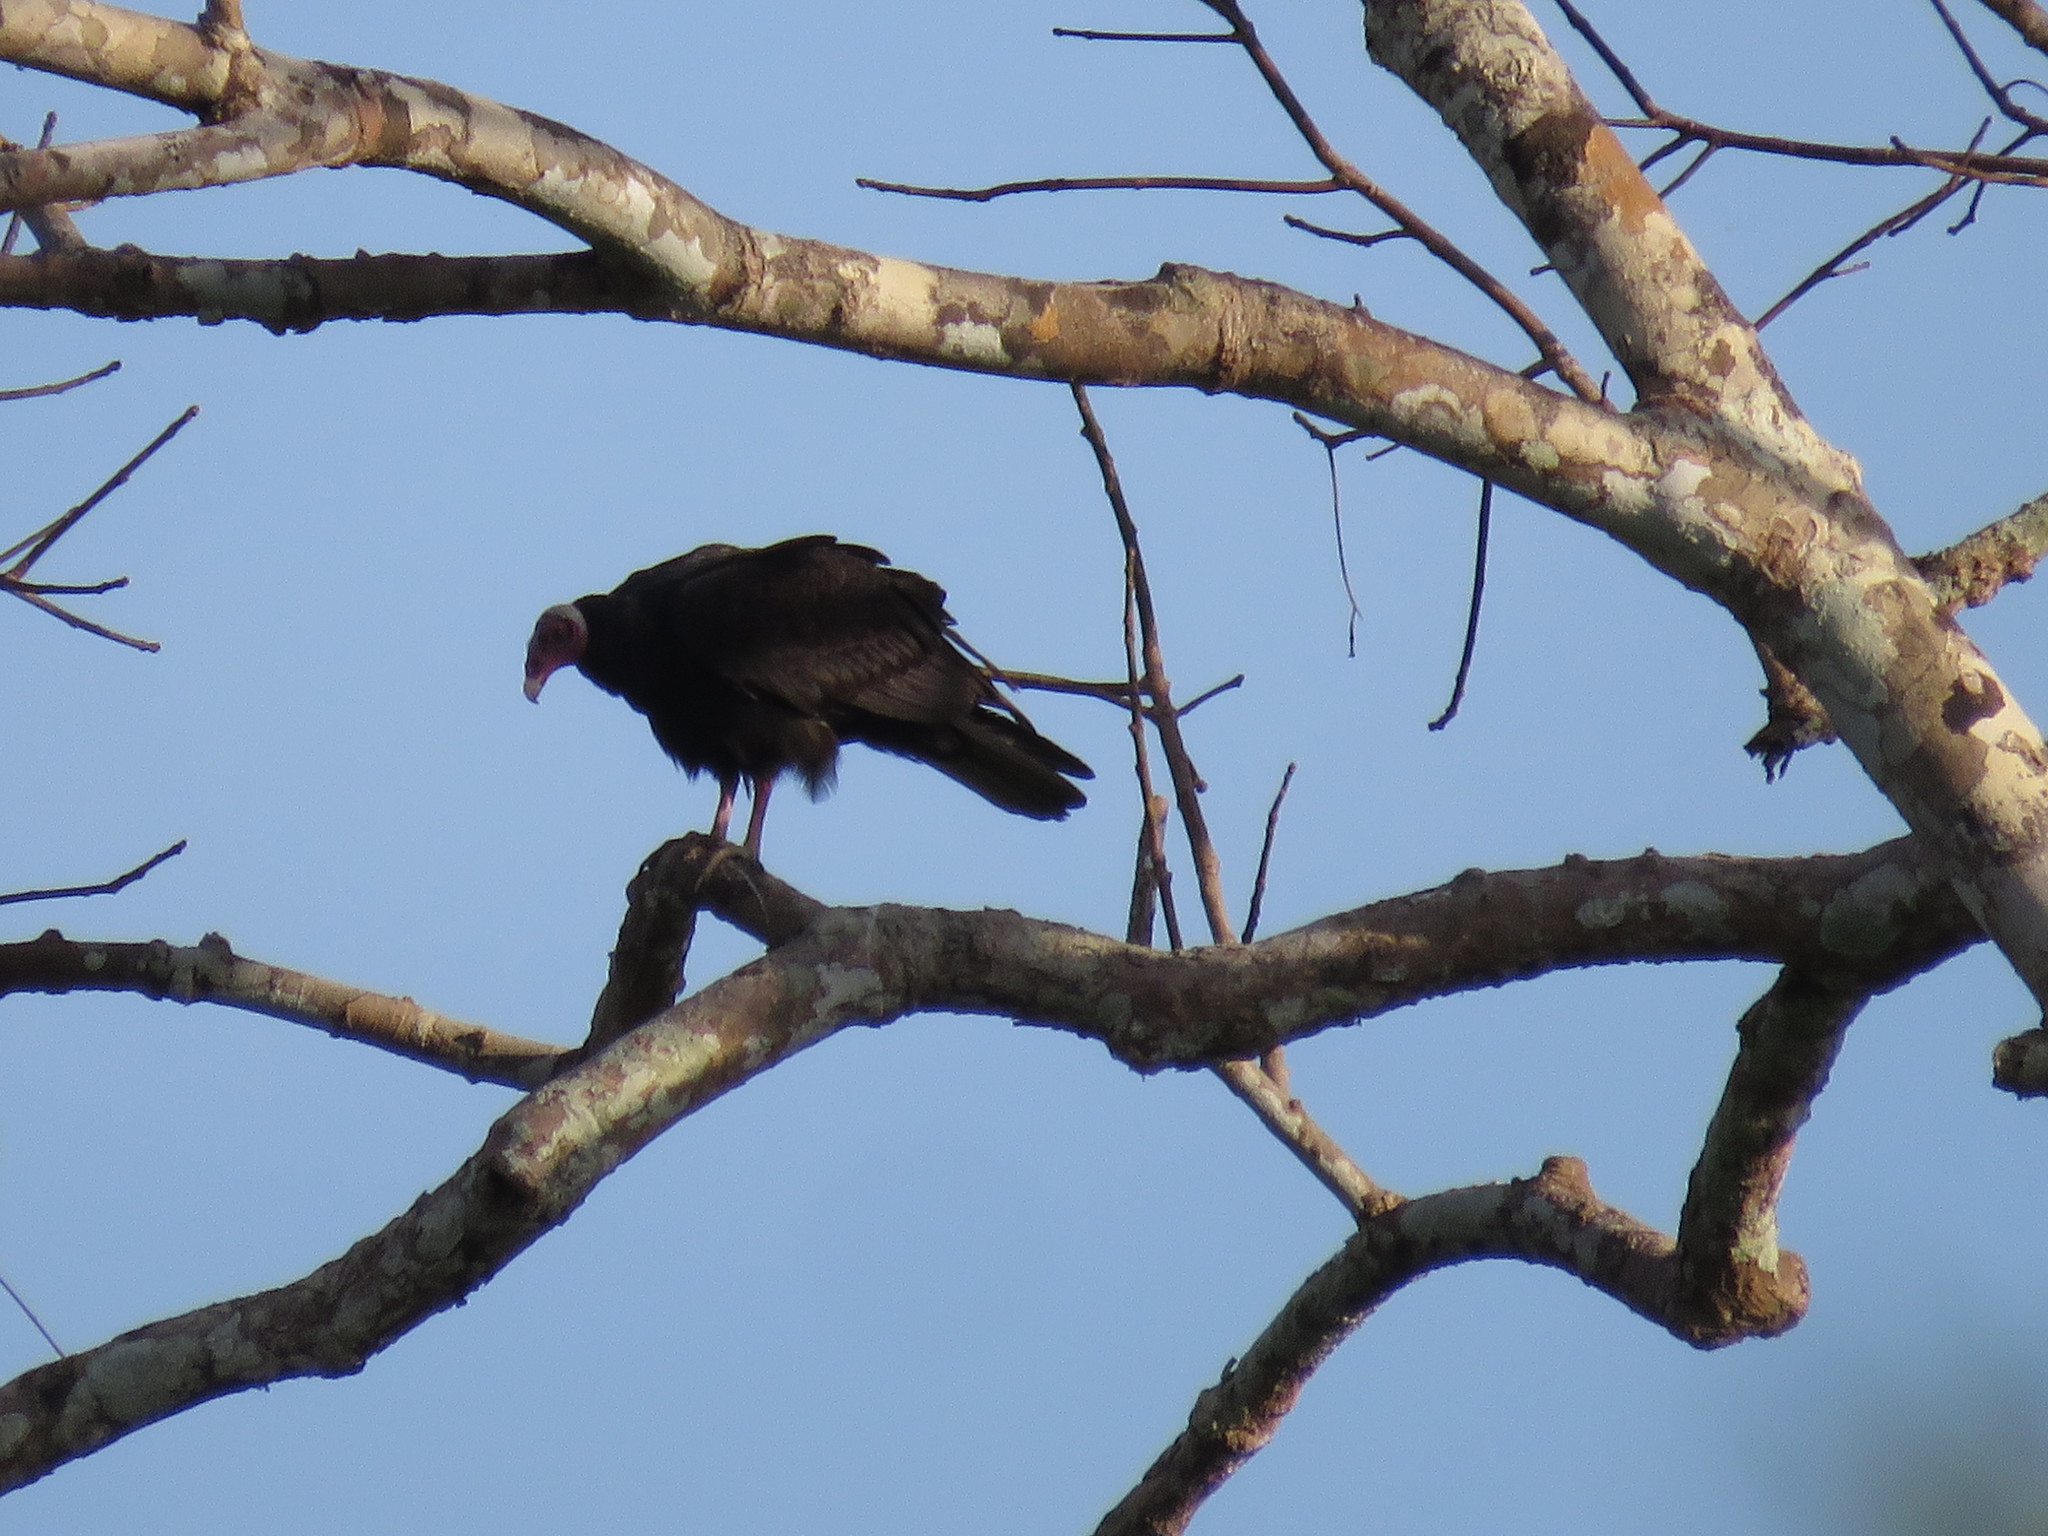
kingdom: Animalia
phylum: Chordata
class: Aves
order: Accipitriformes
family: Cathartidae
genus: Cathartes
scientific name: Cathartes aura
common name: Turkey vulture
